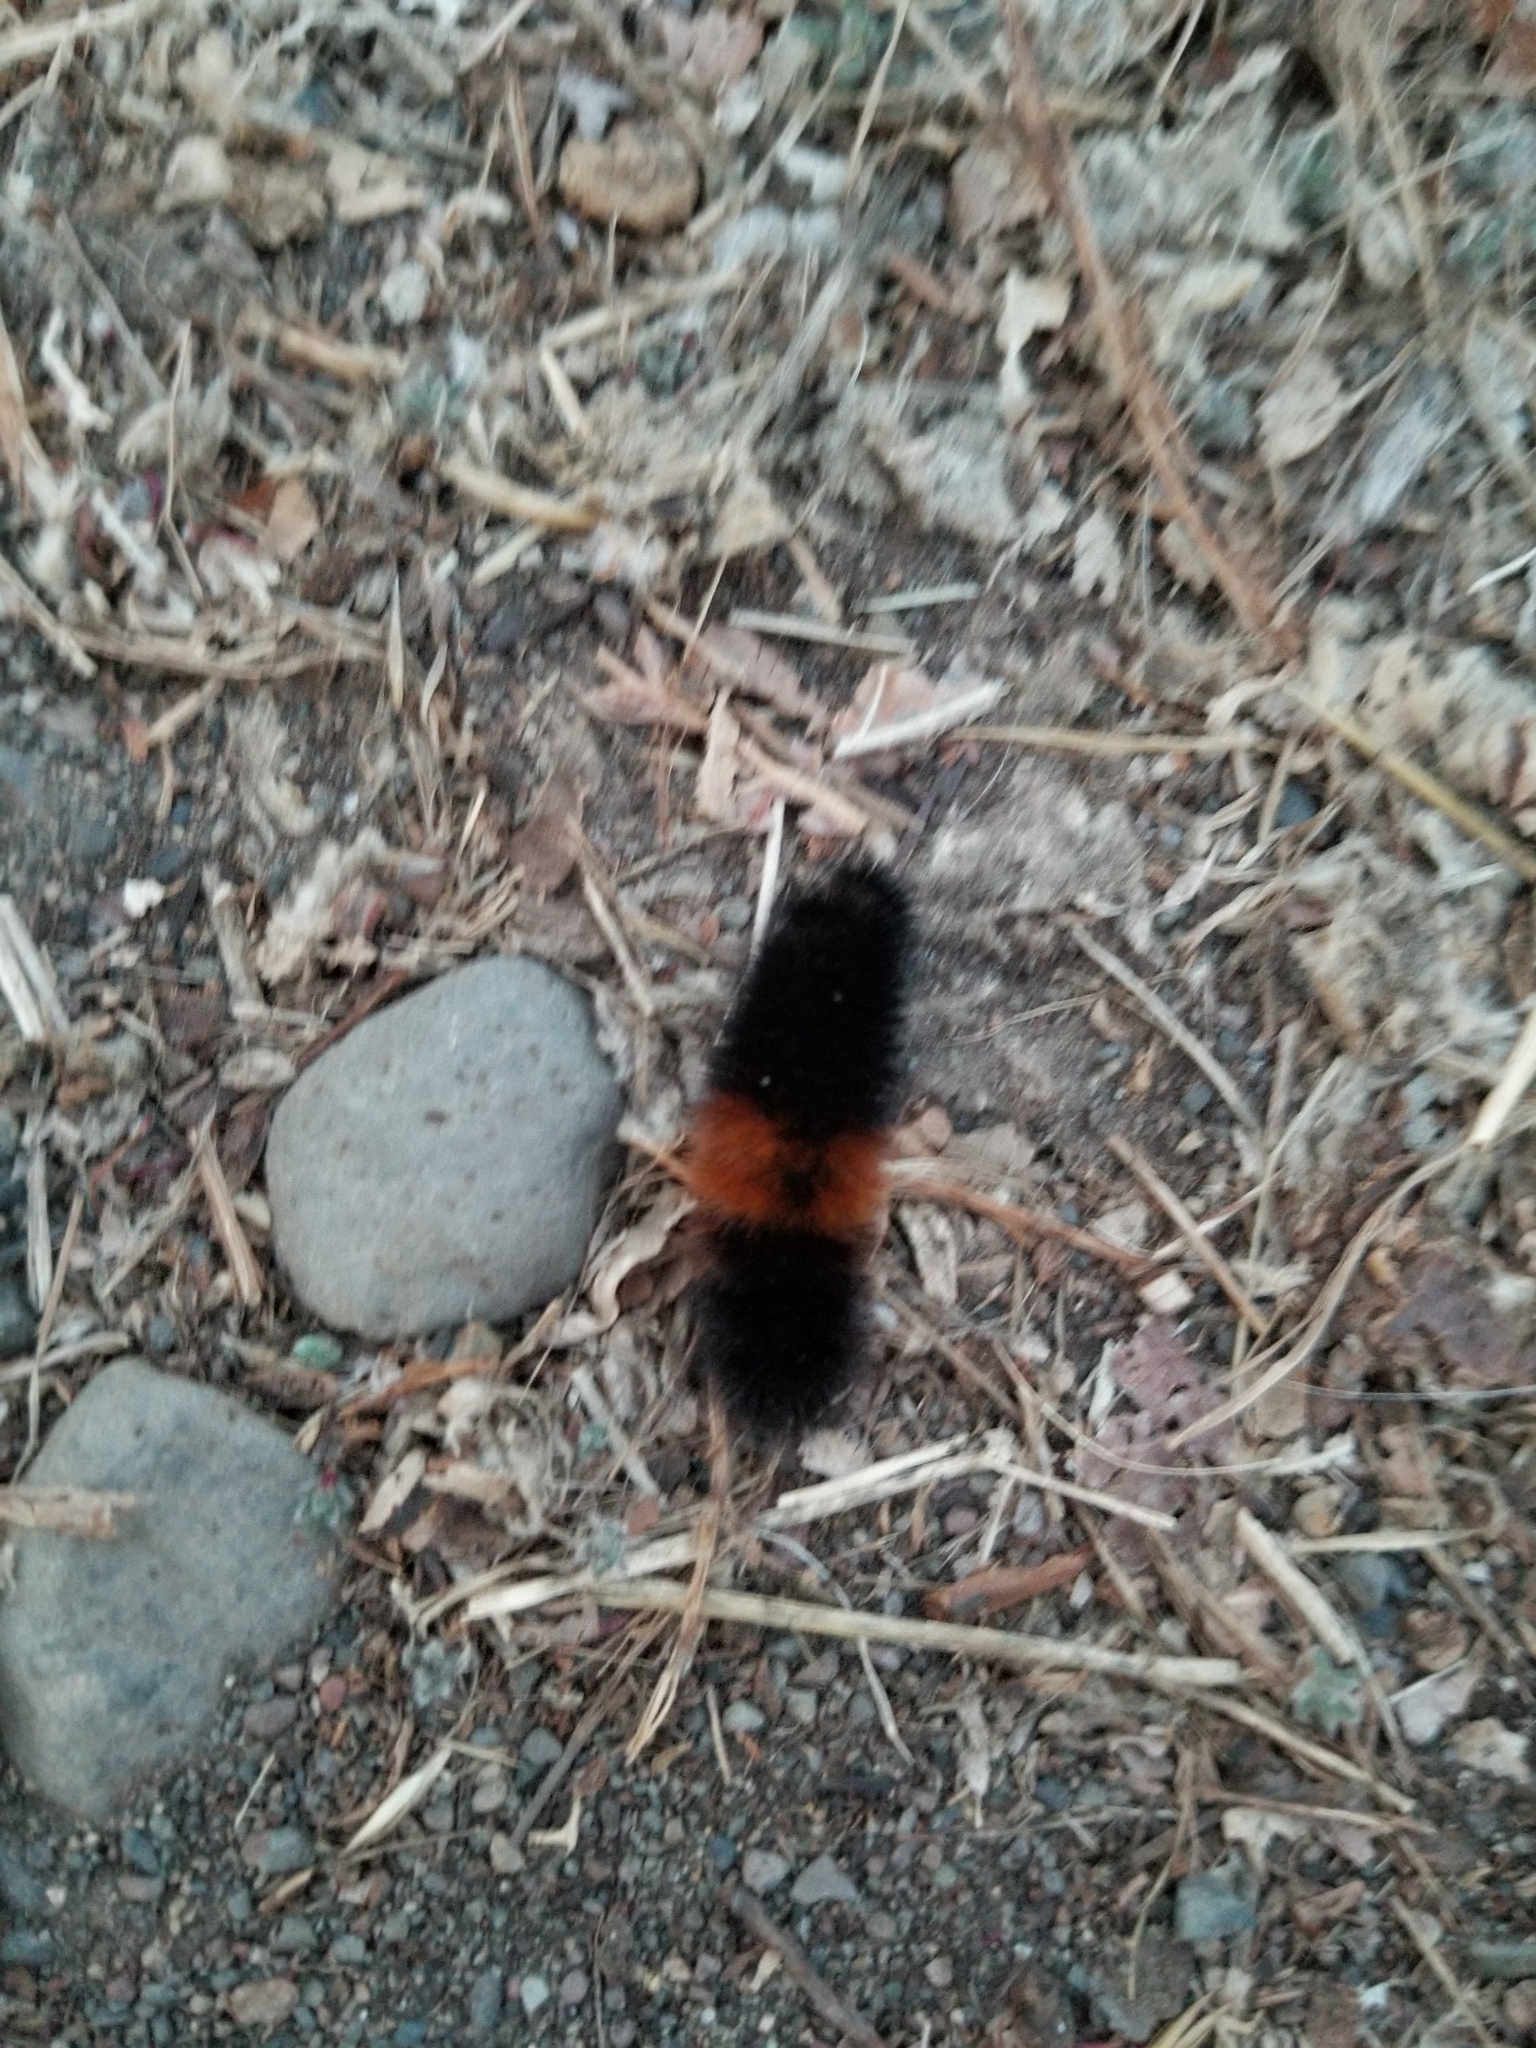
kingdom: Animalia
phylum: Arthropoda
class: Insecta
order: Lepidoptera
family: Erebidae
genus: Pyrrharctia
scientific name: Pyrrharctia isabella
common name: Isabella tiger moth
